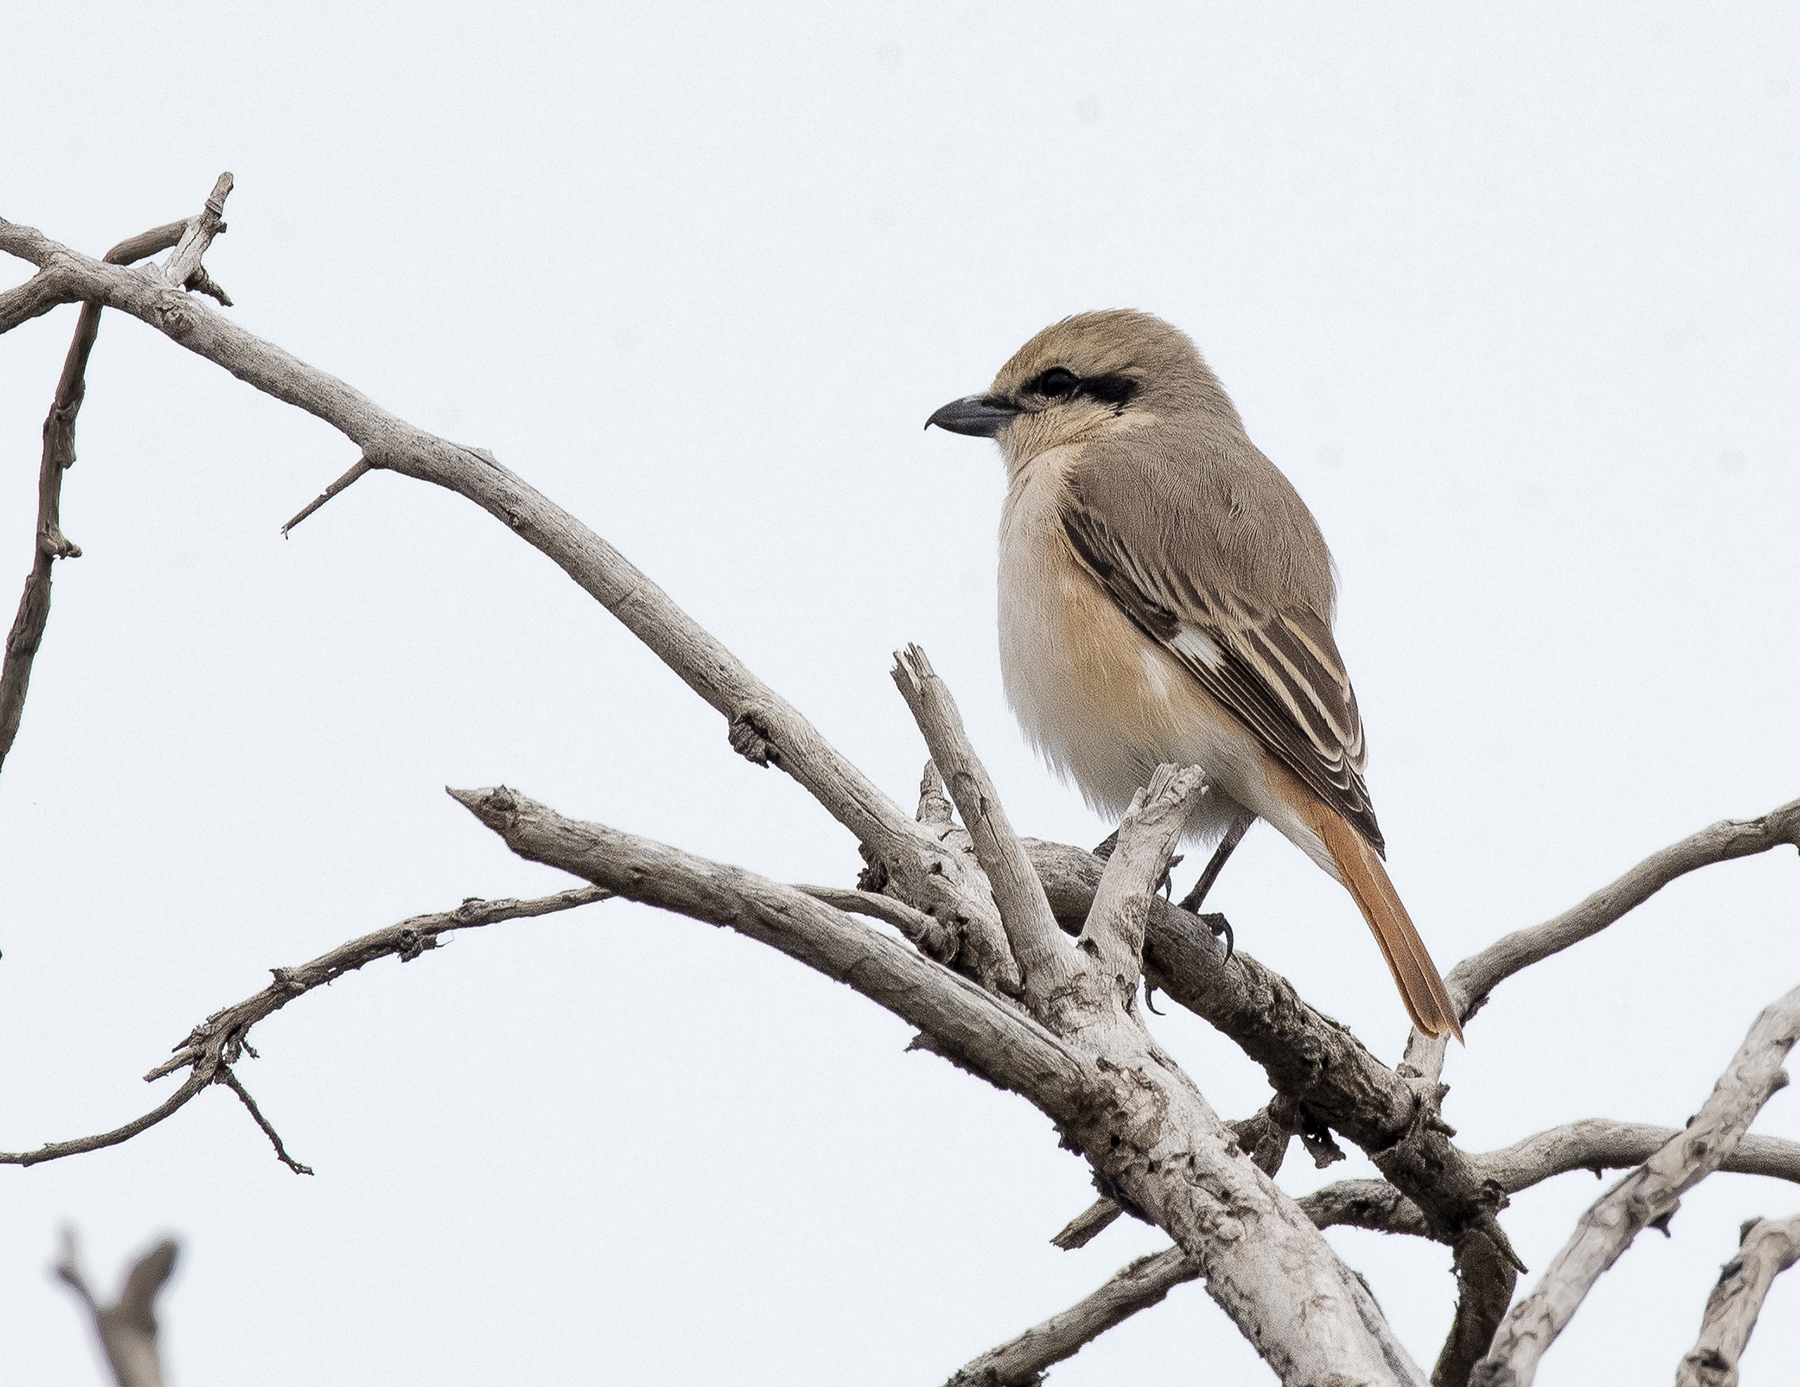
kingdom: Animalia
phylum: Chordata
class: Aves
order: Passeriformes
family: Laniidae
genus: Lanius
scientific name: Lanius isabellinus
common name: Isabelline shrike
